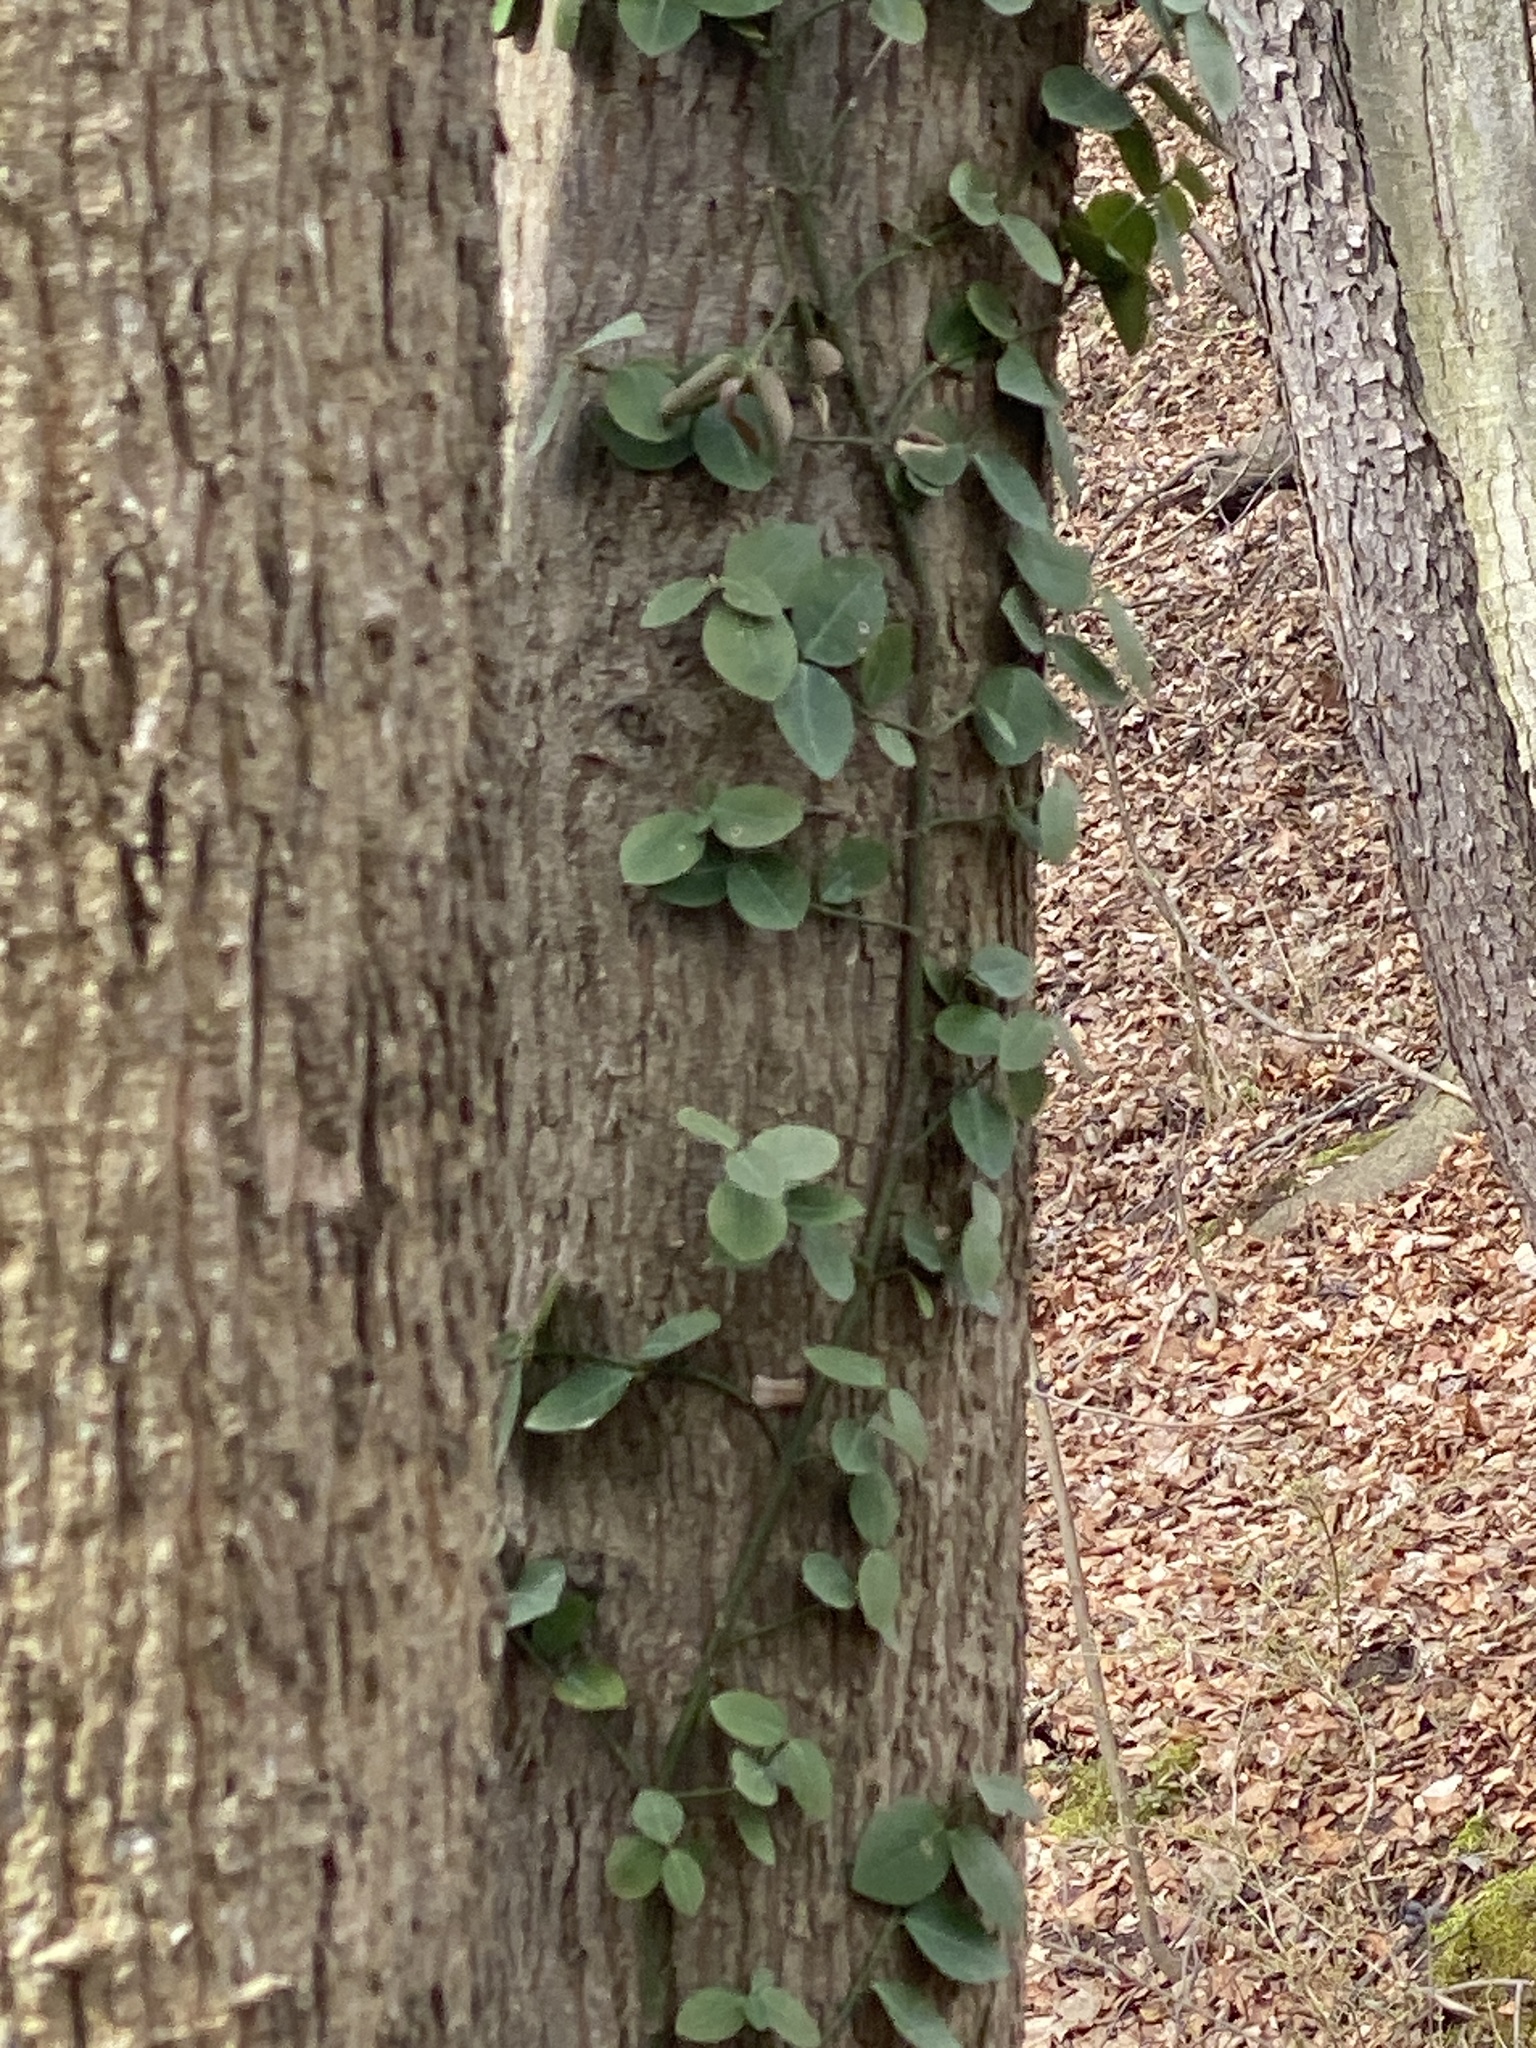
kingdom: Plantae
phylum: Tracheophyta
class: Magnoliopsida
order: Celastrales
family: Celastraceae
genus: Euonymus
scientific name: Euonymus fortunei
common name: Climbing euonymus
